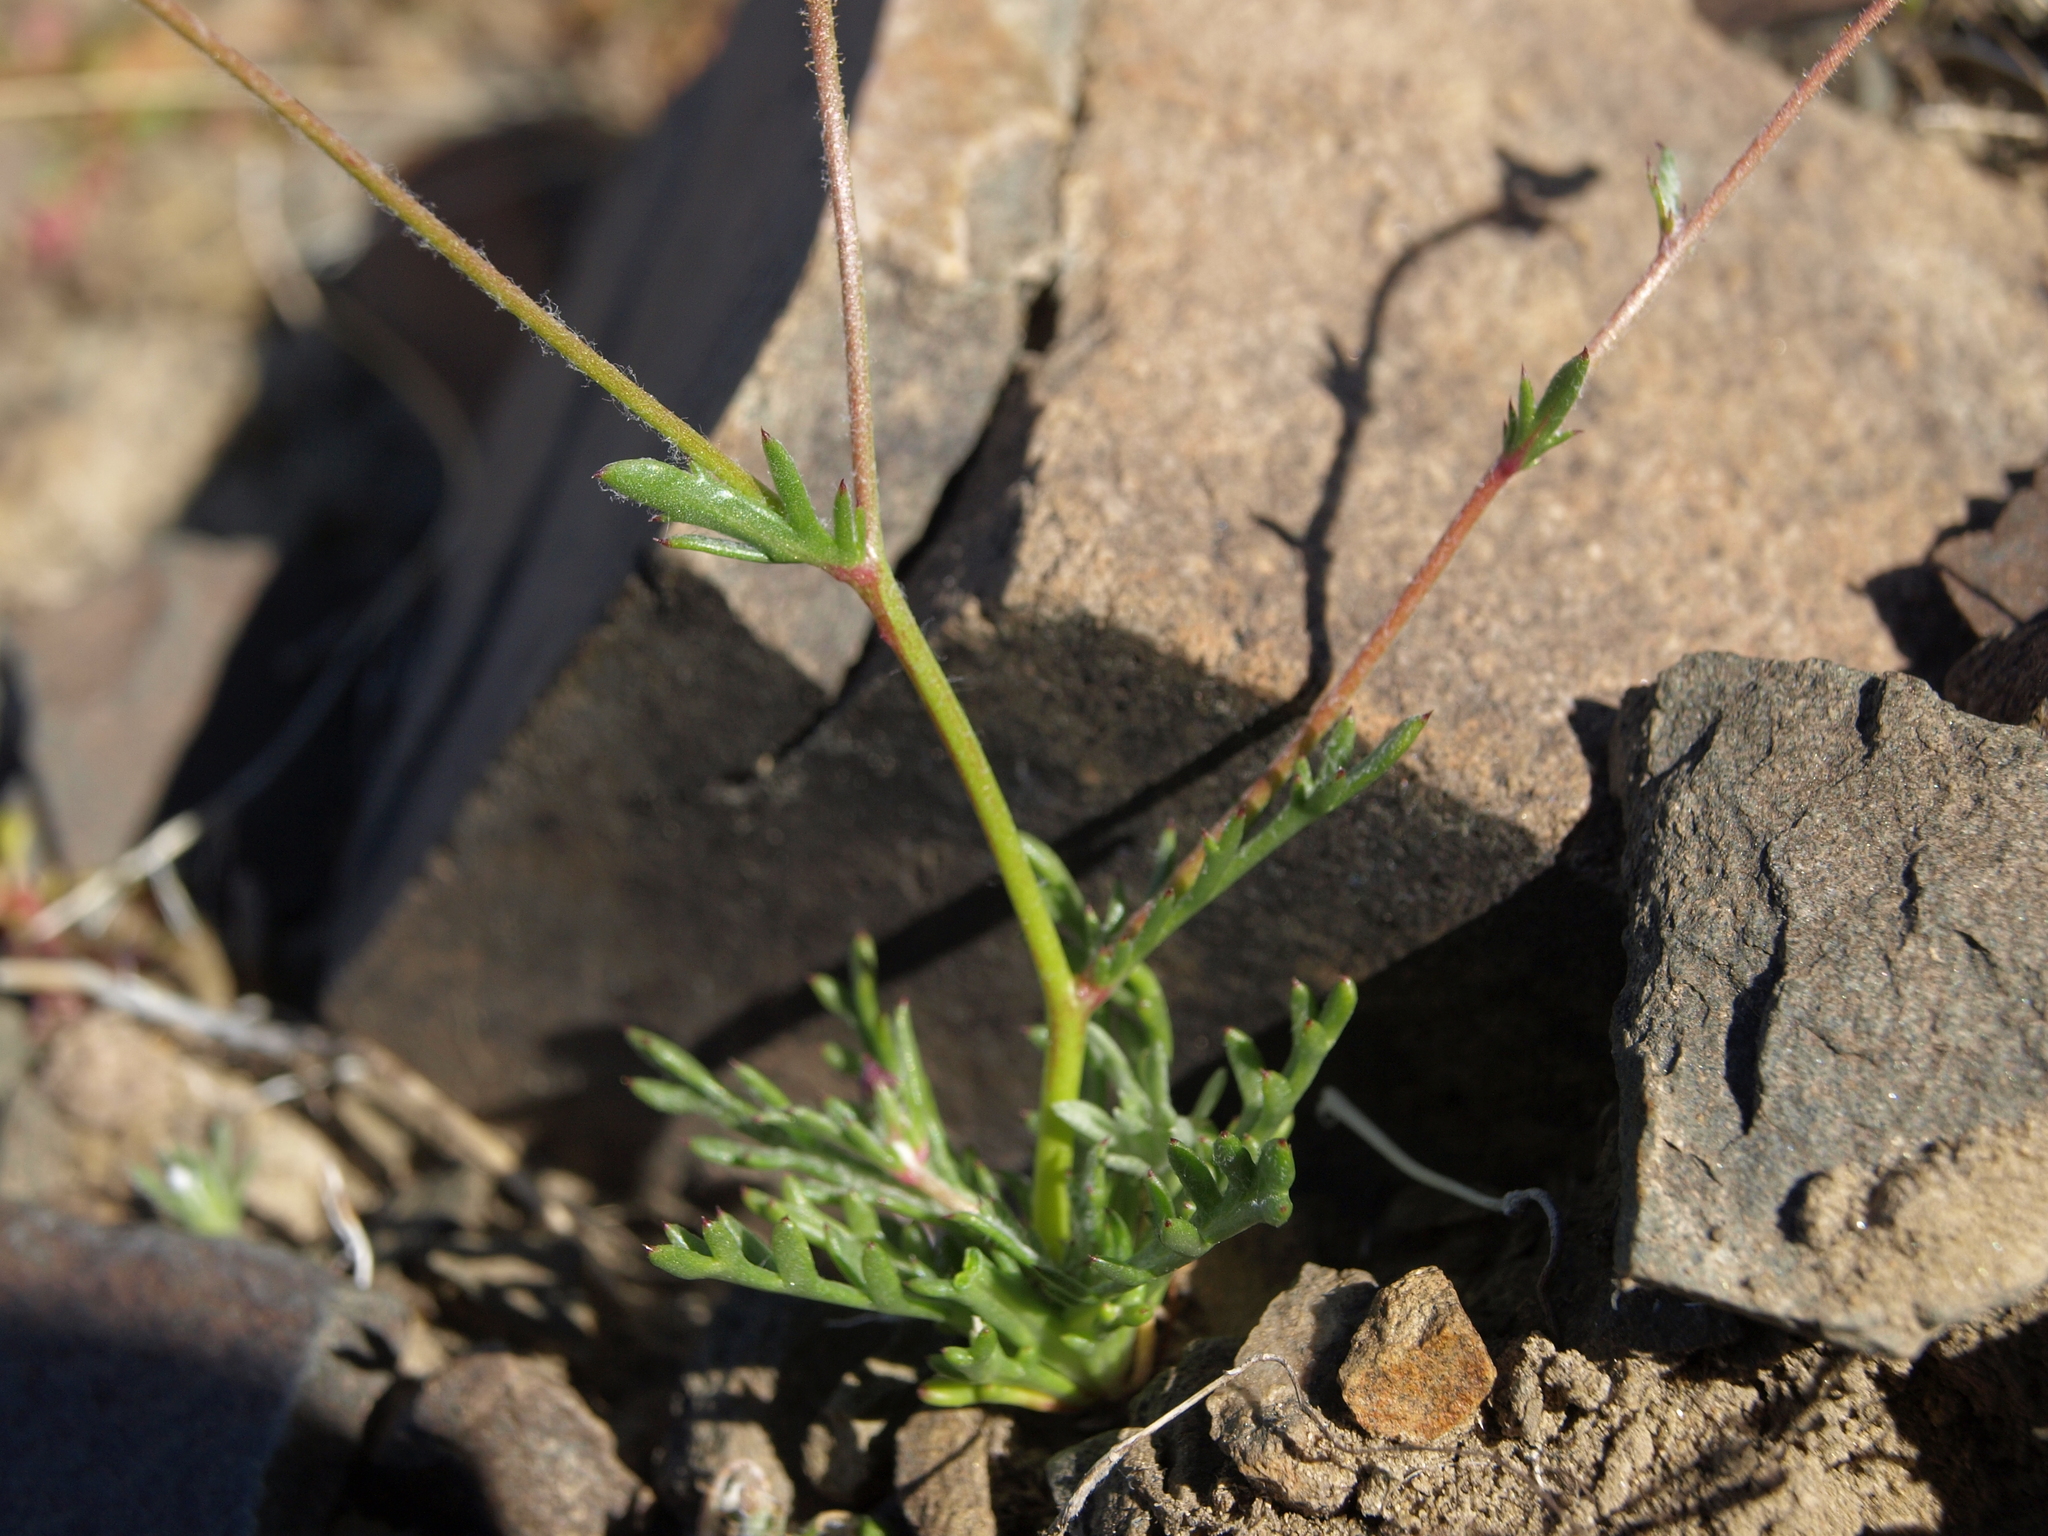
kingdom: Plantae
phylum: Tracheophyta
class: Magnoliopsida
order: Ericales
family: Polemoniaceae
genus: Gilia
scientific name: Gilia transmontana
